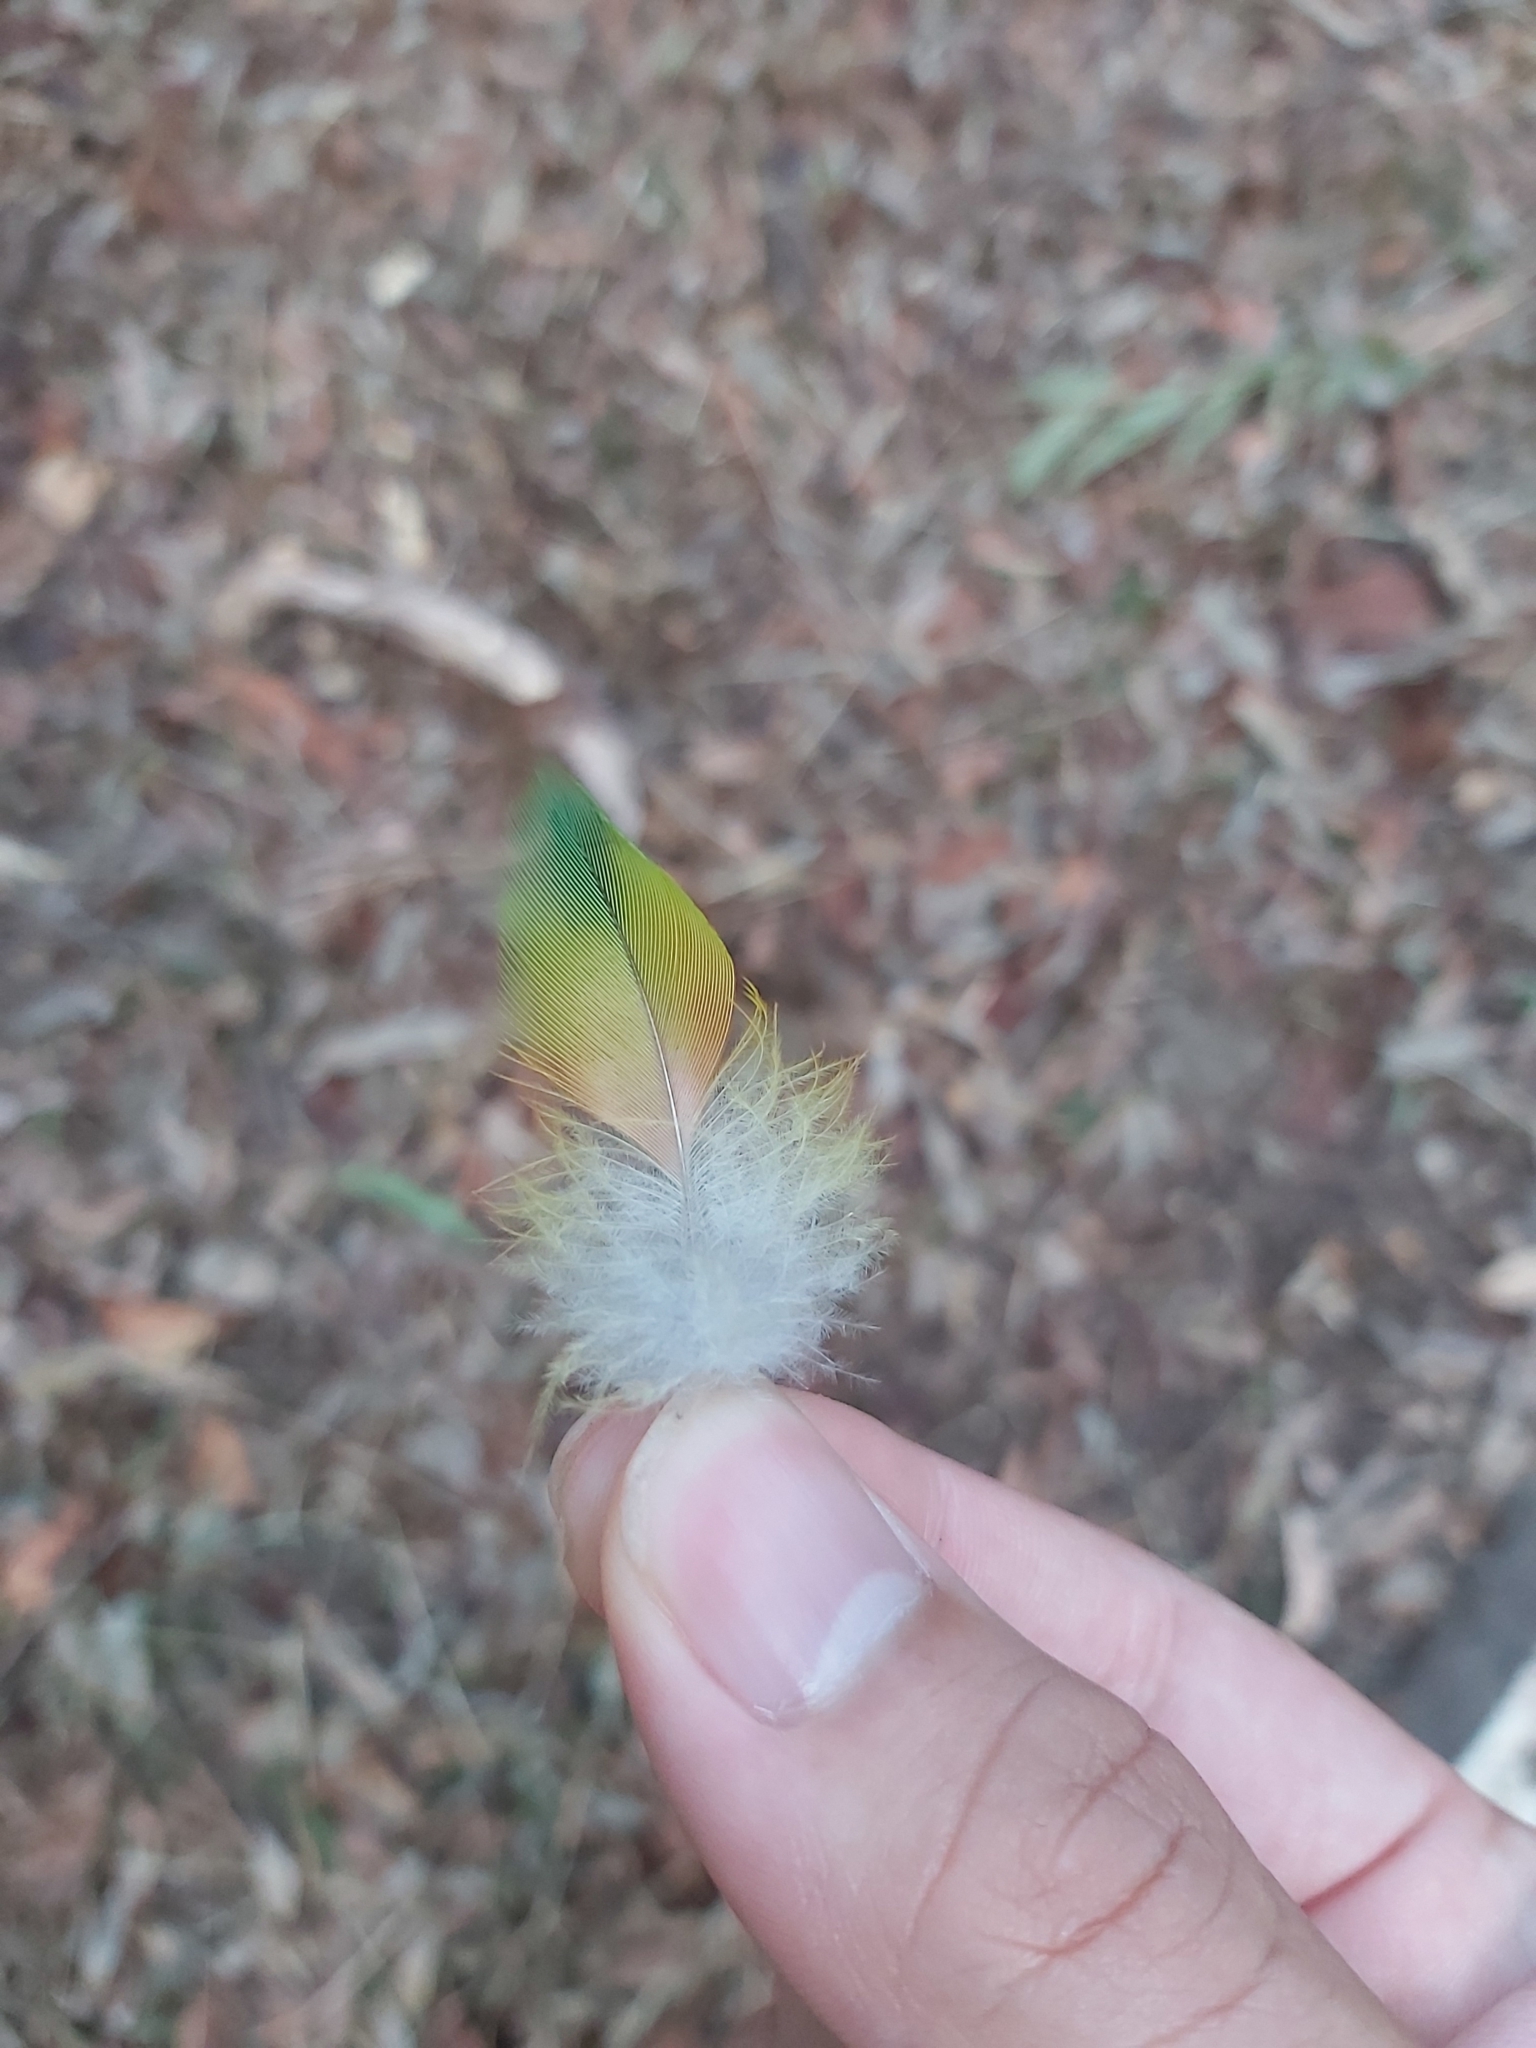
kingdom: Animalia
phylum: Chordata
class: Aves
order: Psittaciformes
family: Psittacidae
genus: Trichoglossus
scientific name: Trichoglossus haematodus
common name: Coconut lorikeet
